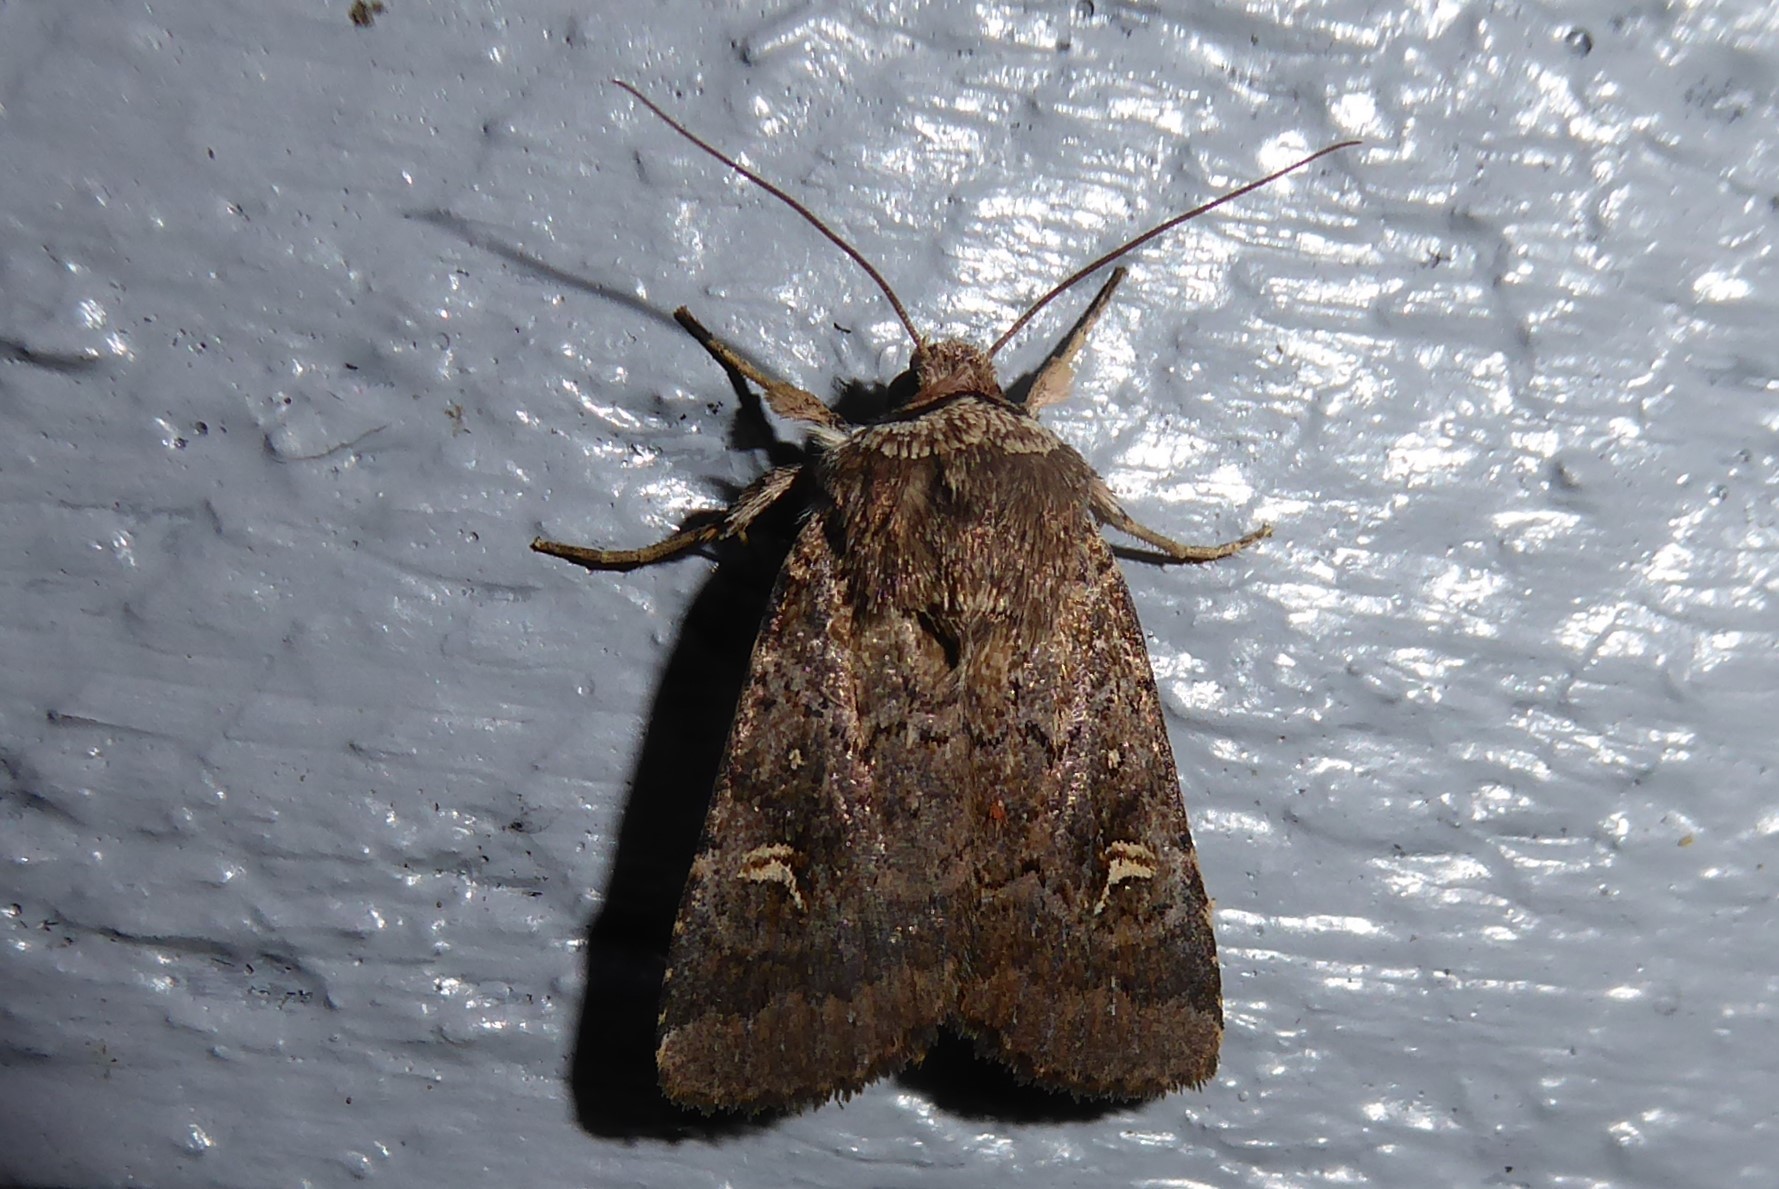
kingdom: Animalia
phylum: Arthropoda
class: Insecta
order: Lepidoptera
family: Noctuidae
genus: Proteuxoa
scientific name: Proteuxoa tetronycha
